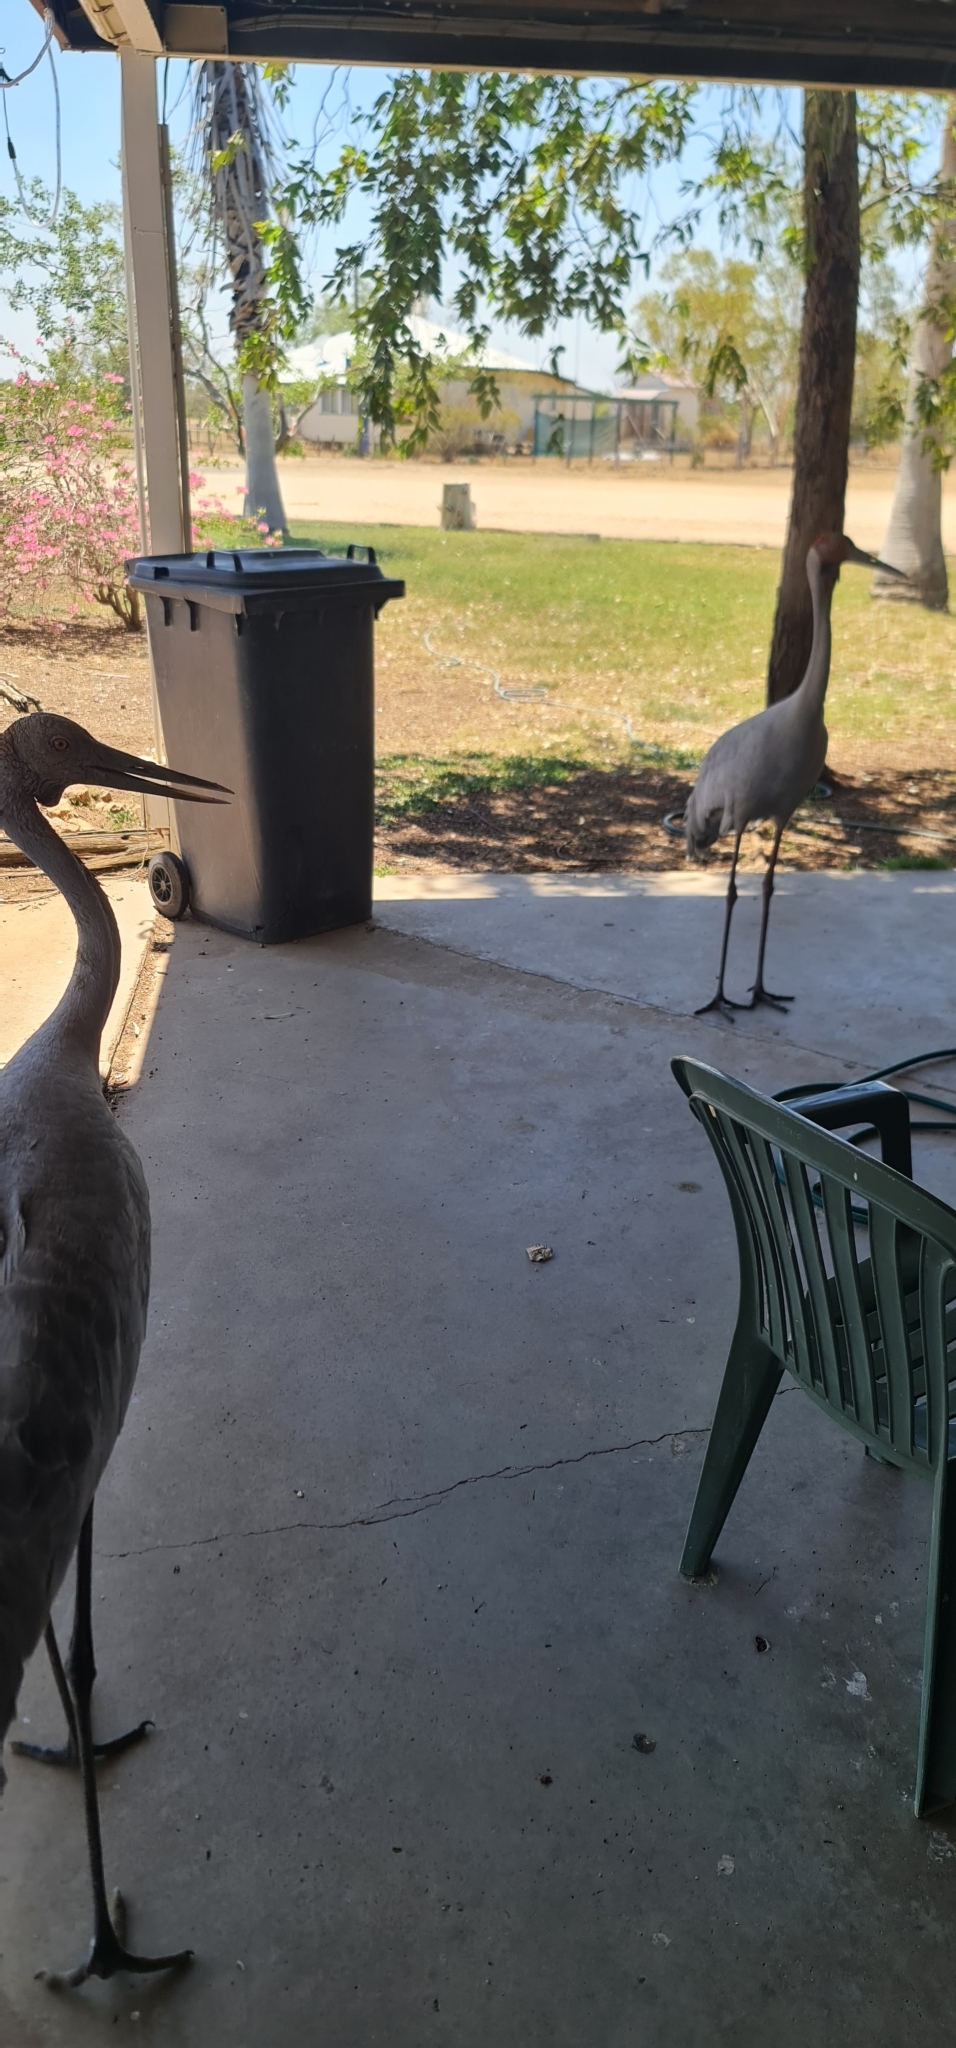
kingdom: Animalia
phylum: Chordata
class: Aves
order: Gruiformes
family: Gruidae
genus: Grus
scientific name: Grus rubicunda
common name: Brolga
